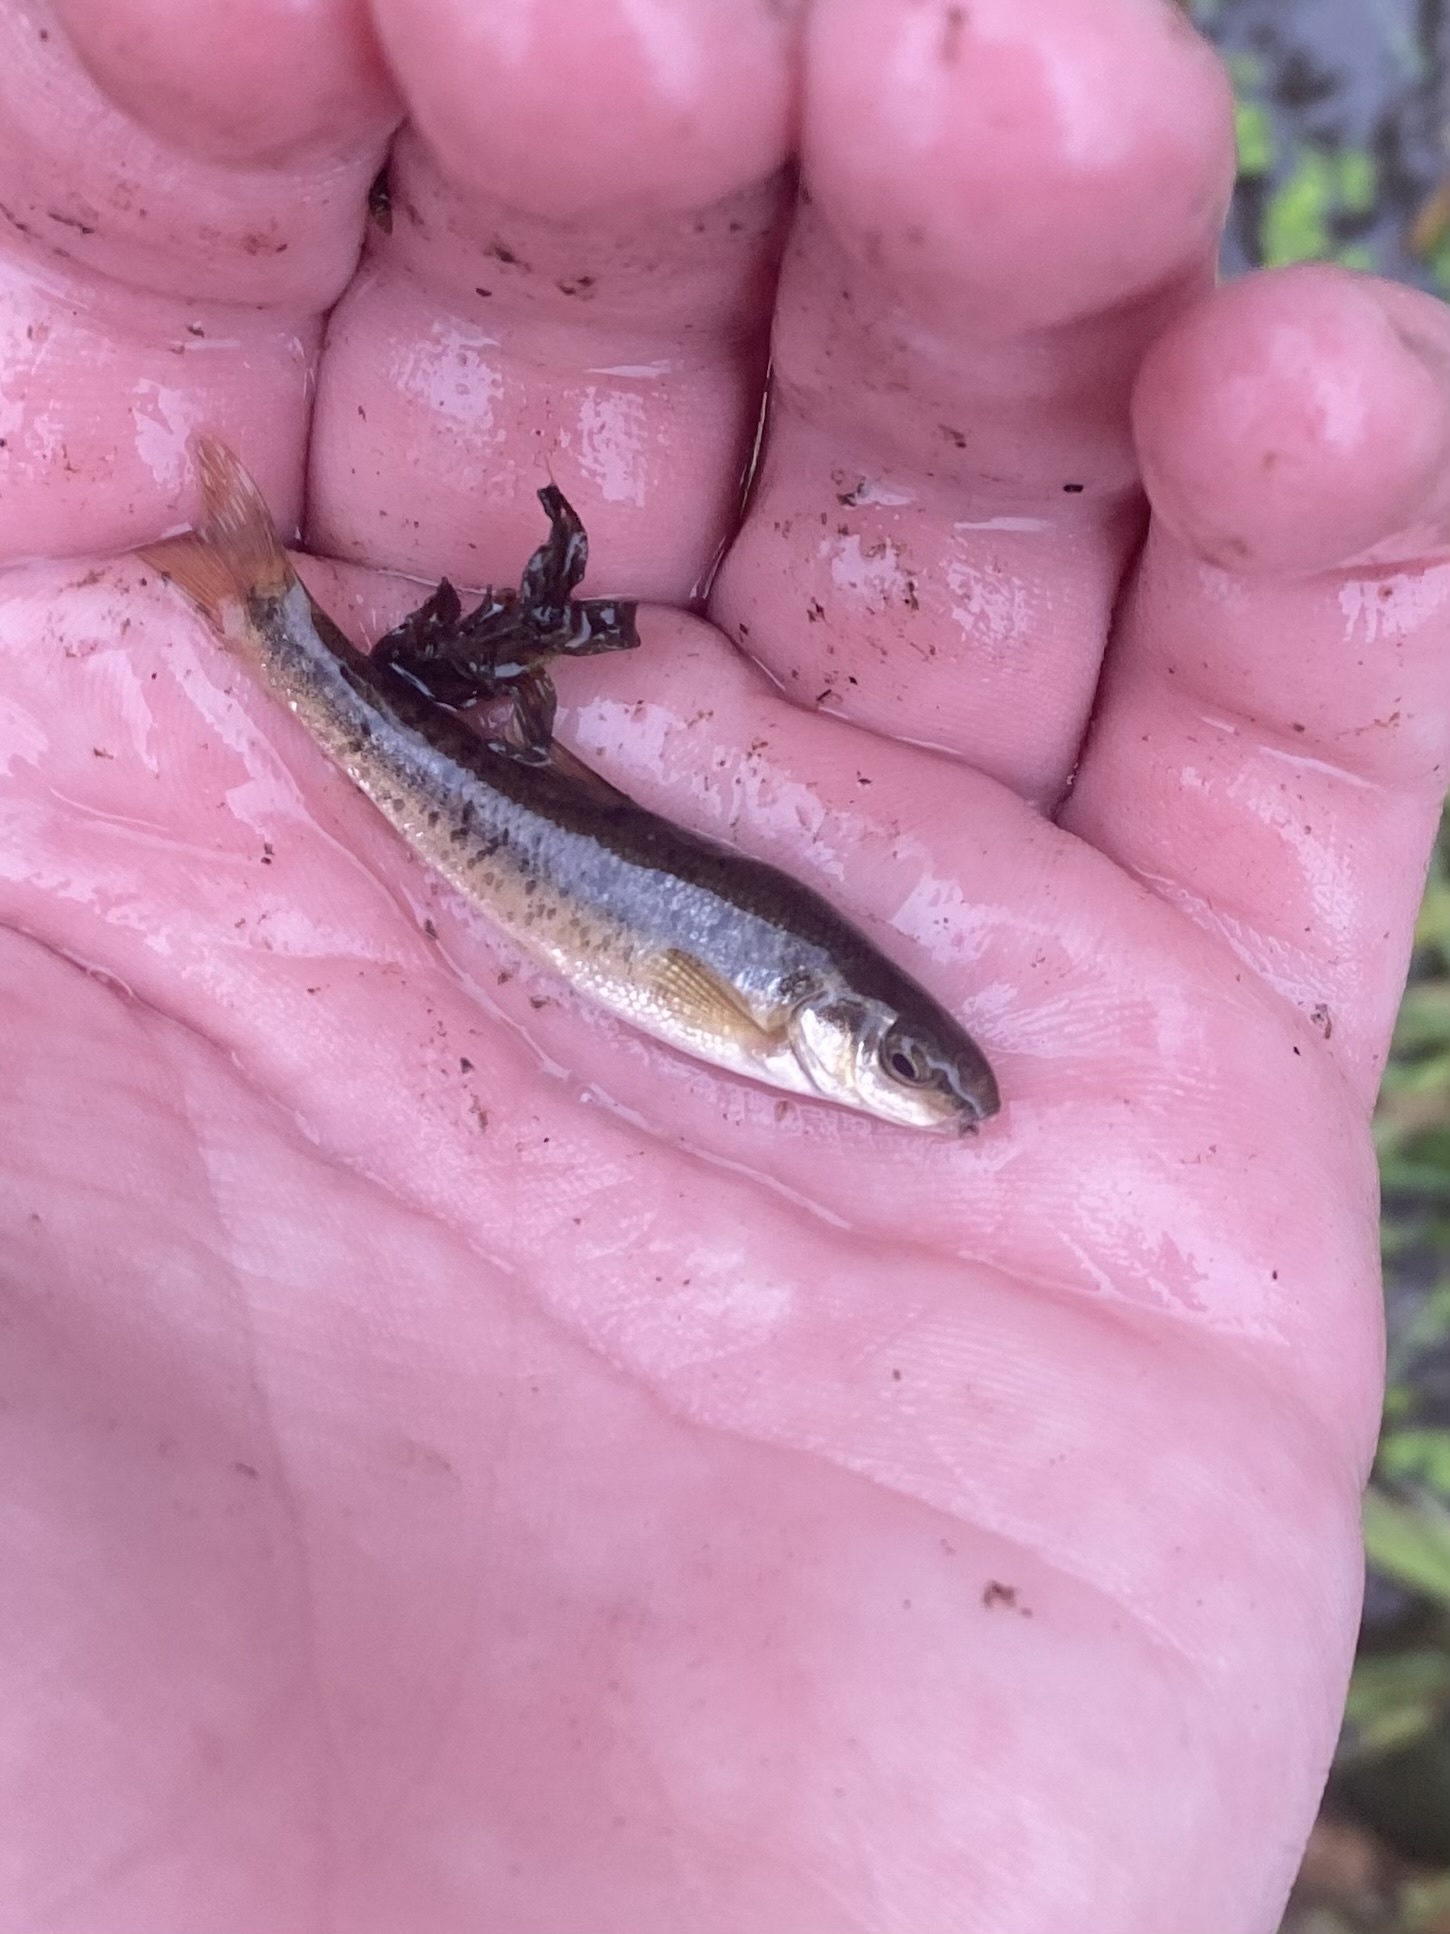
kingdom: Animalia
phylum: Chordata
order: Cypriniformes
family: Cyprinidae
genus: Campostoma
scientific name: Campostoma anomalum
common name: Central stoneroller
